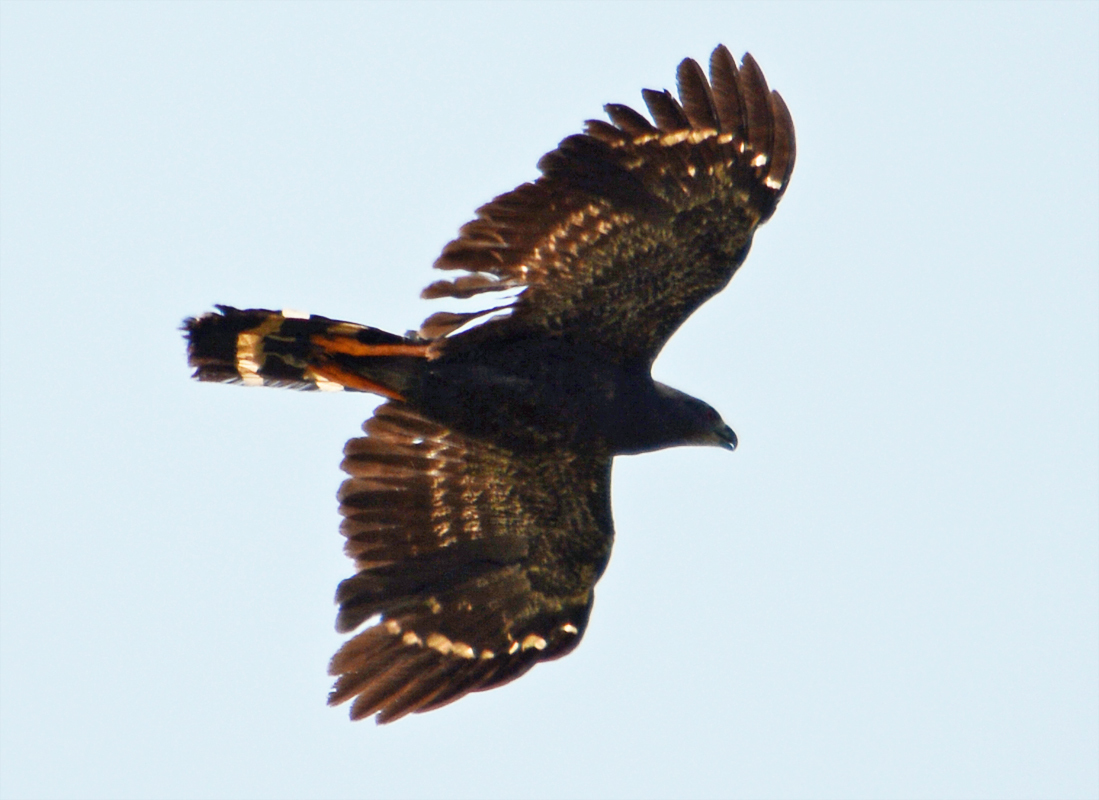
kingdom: Animalia
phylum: Chordata
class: Aves
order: Accipitriformes
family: Accipitridae
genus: Geranospiza
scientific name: Geranospiza caerulescens
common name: Crane hawk
